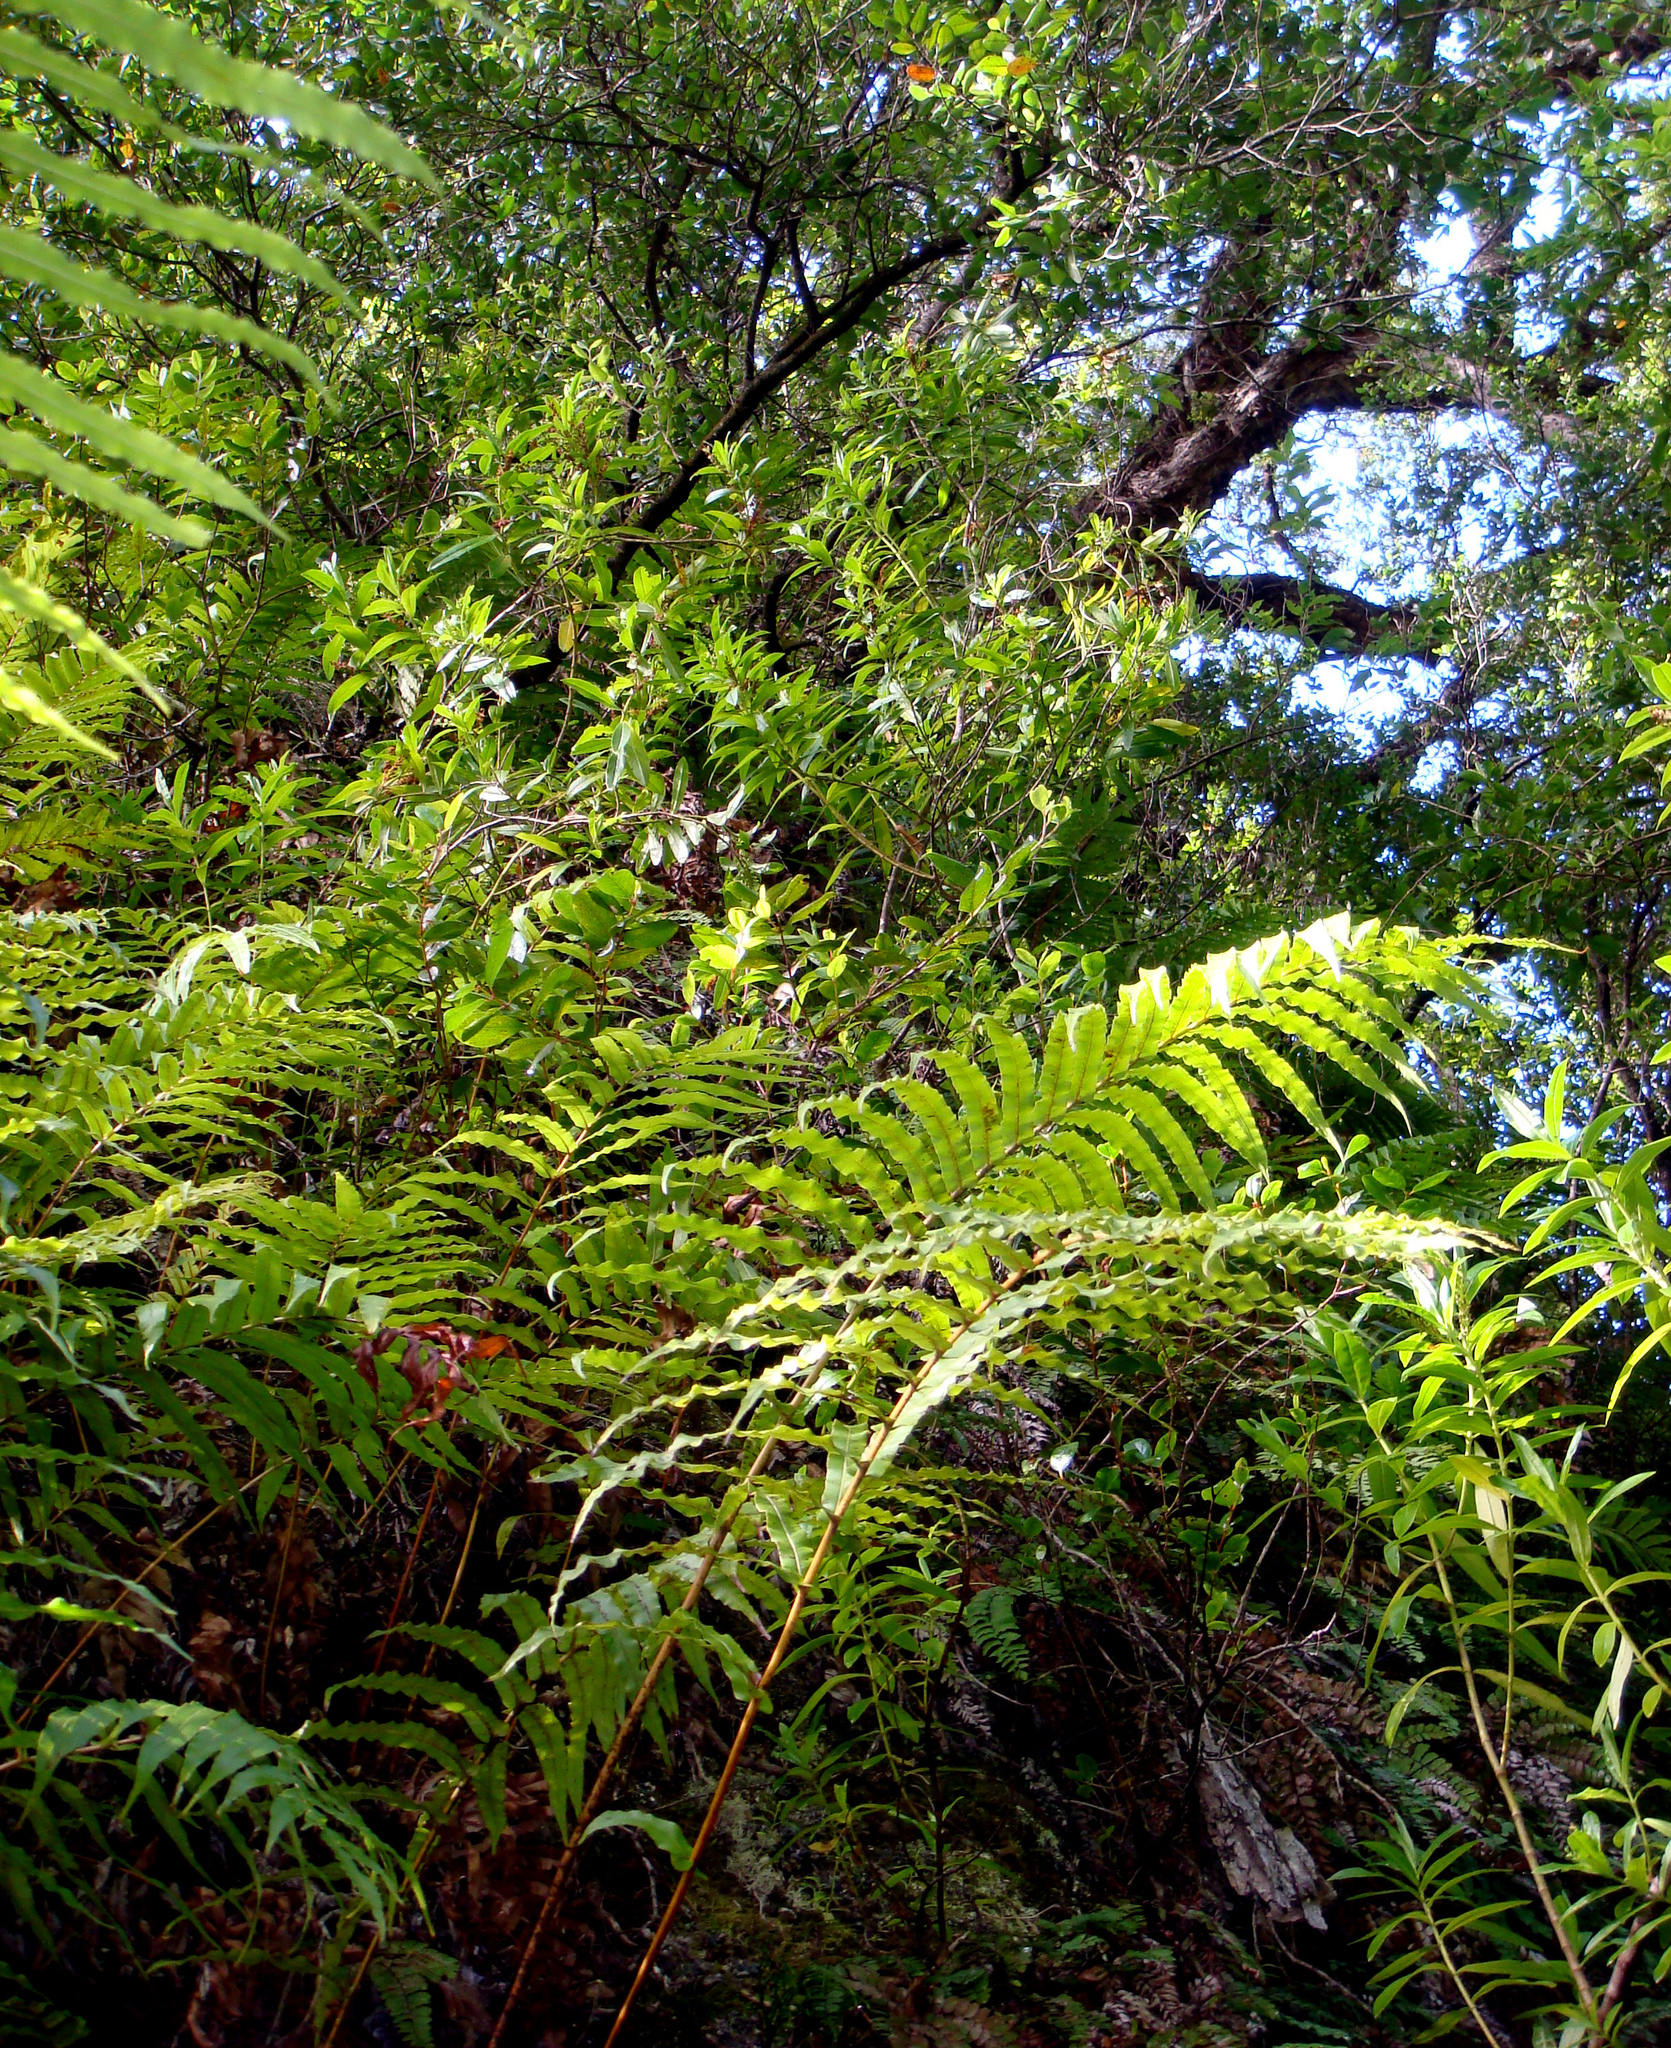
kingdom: Plantae
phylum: Tracheophyta
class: Magnoliopsida
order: Lamiales
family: Plantaginaceae
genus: Veronica
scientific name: Veronica breviracemosa
